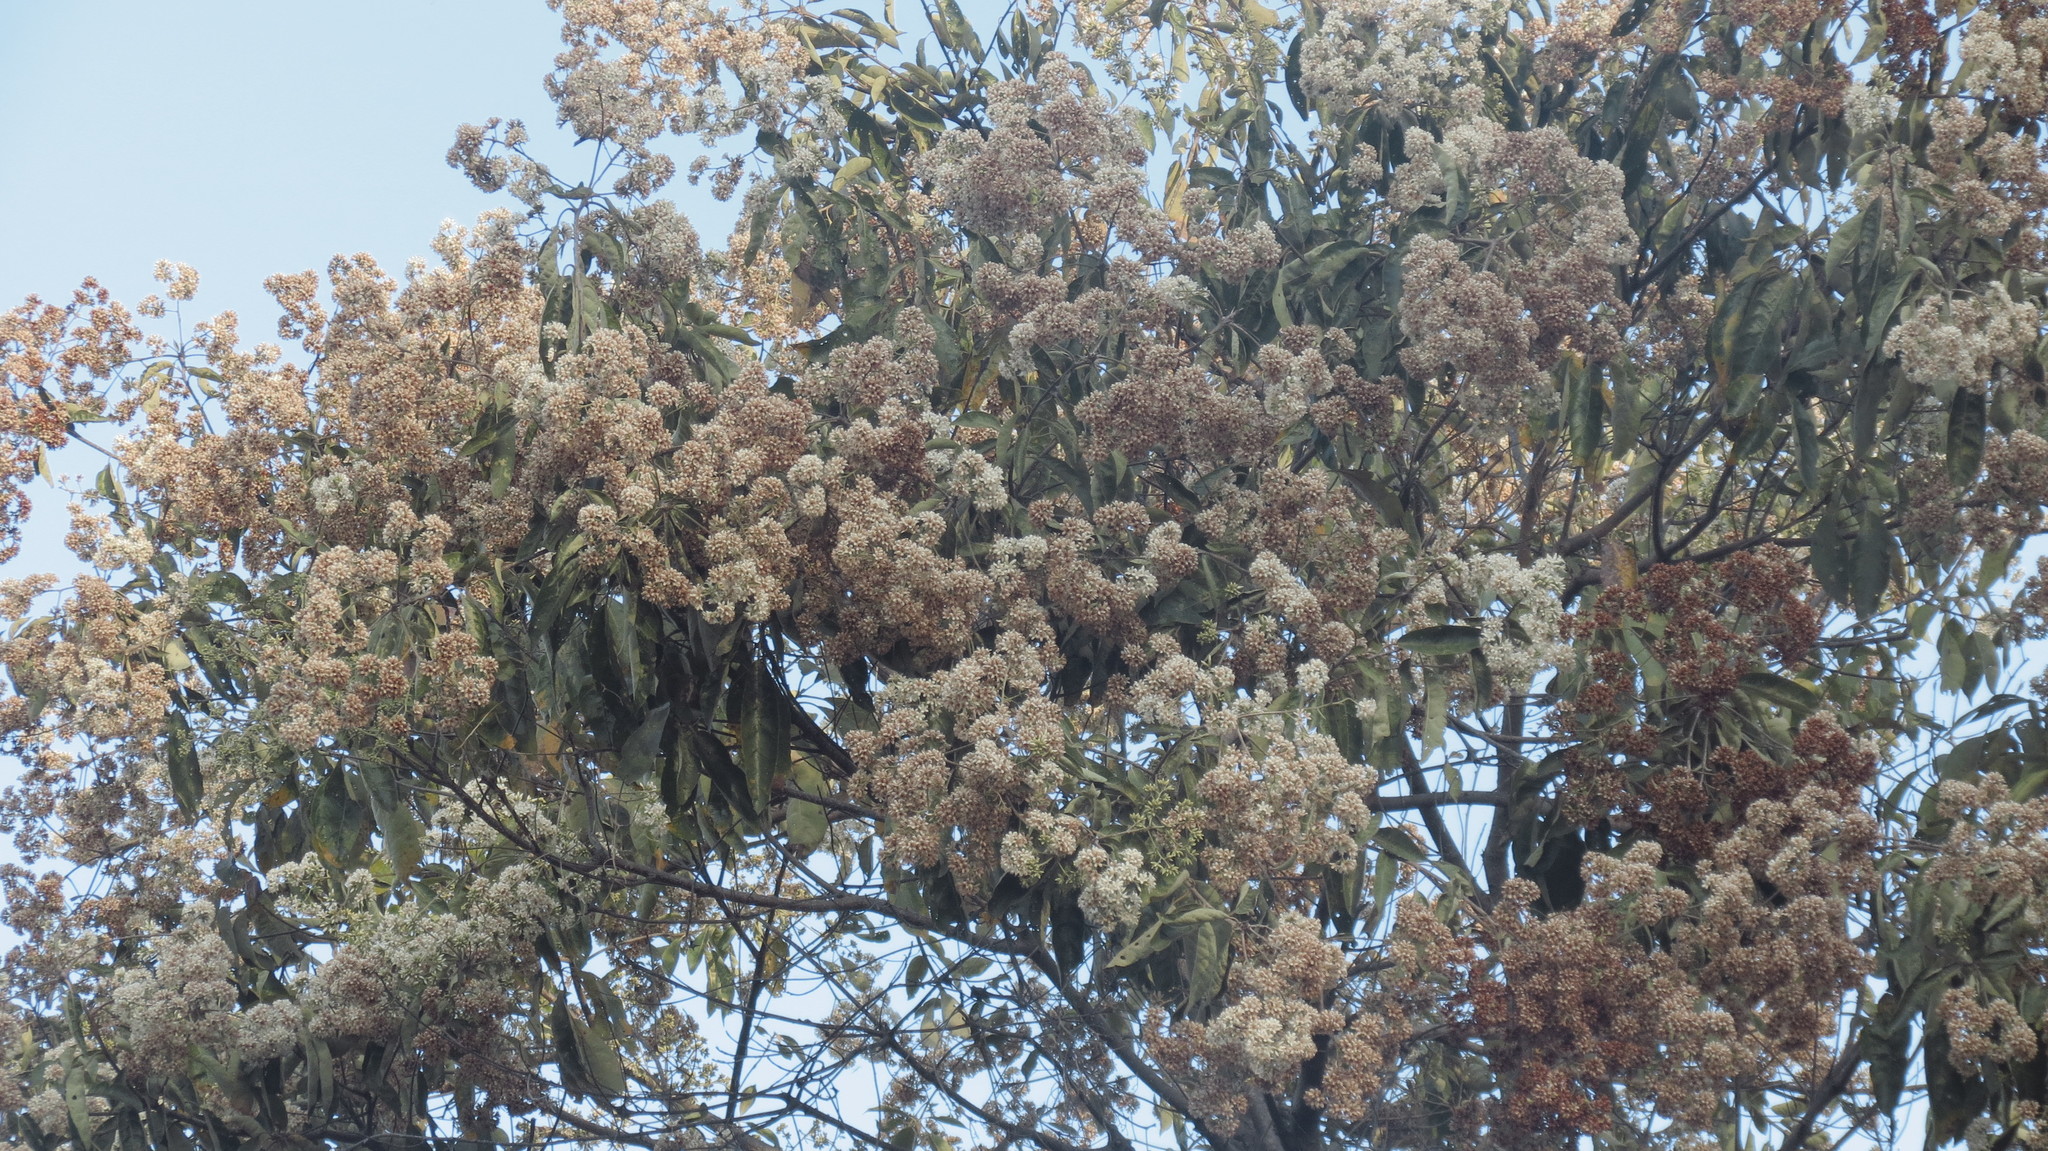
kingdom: Plantae
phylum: Tracheophyta
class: Magnoliopsida
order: Boraginales
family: Cordiaceae
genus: Cordia
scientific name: Cordia alliodora
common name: Spanish elm
